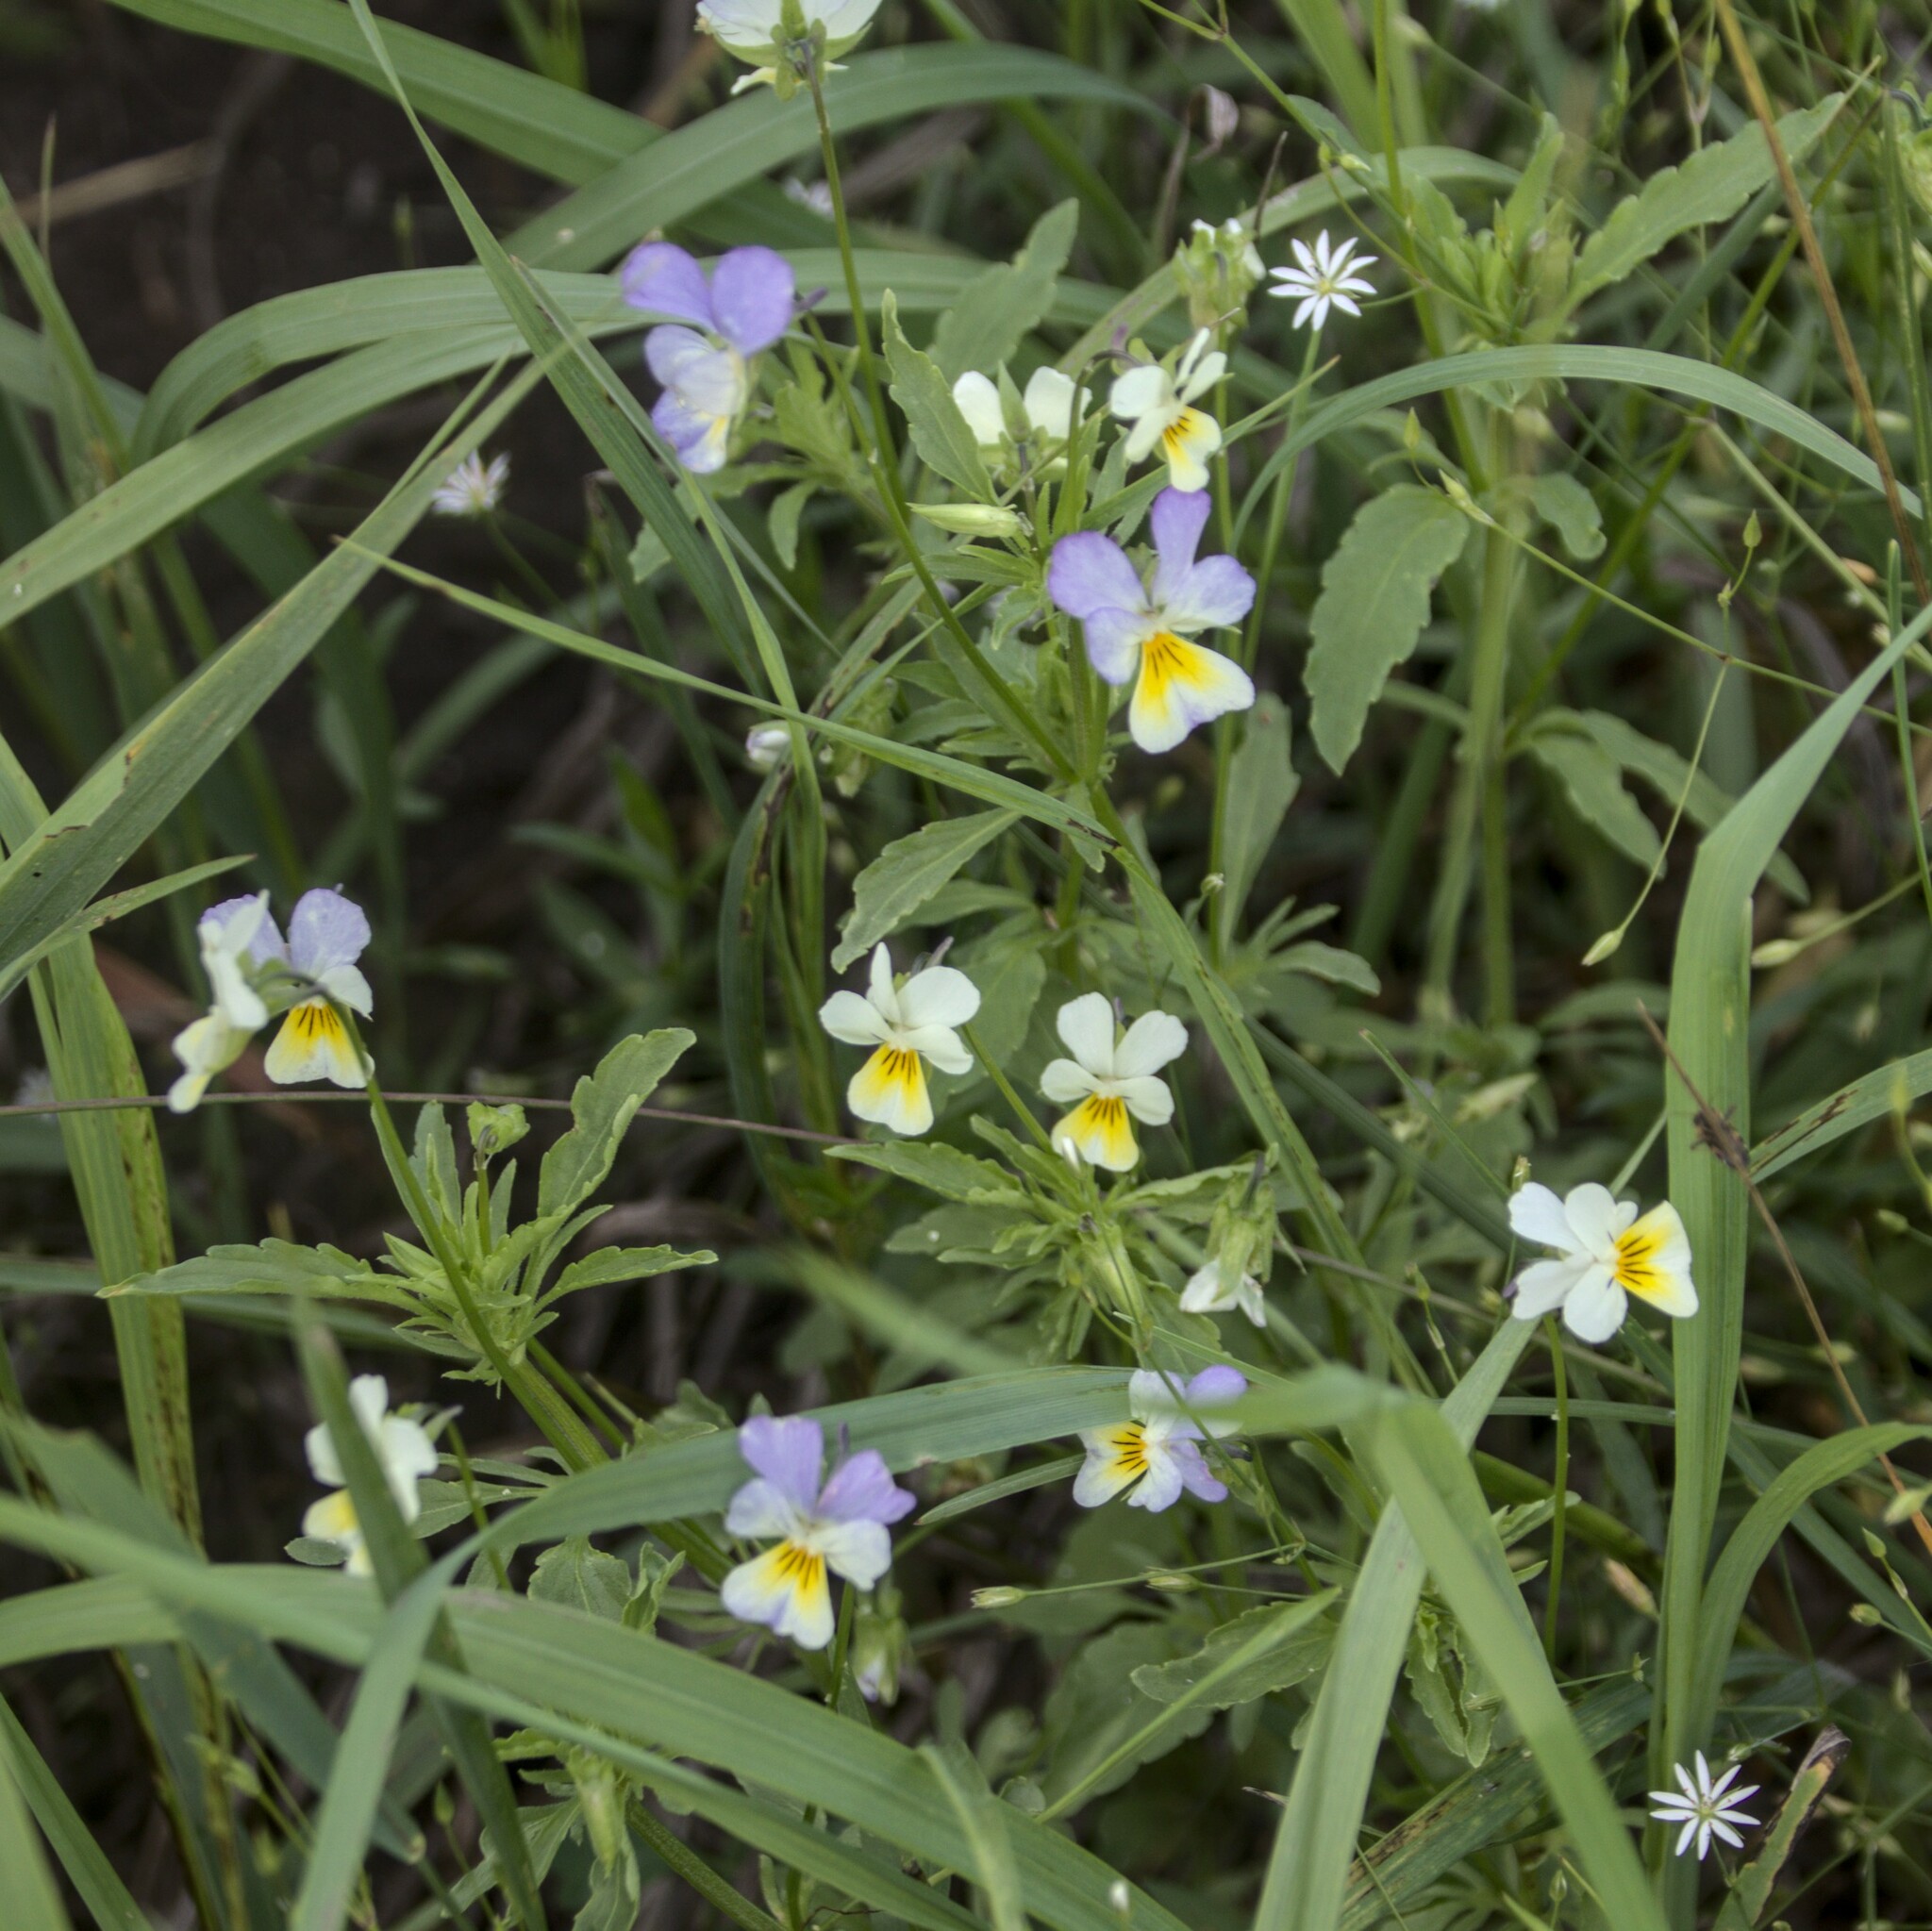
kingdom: Plantae
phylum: Tracheophyta
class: Magnoliopsida
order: Malpighiales
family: Violaceae
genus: Viola
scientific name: Viola tricolor
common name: Pansy
